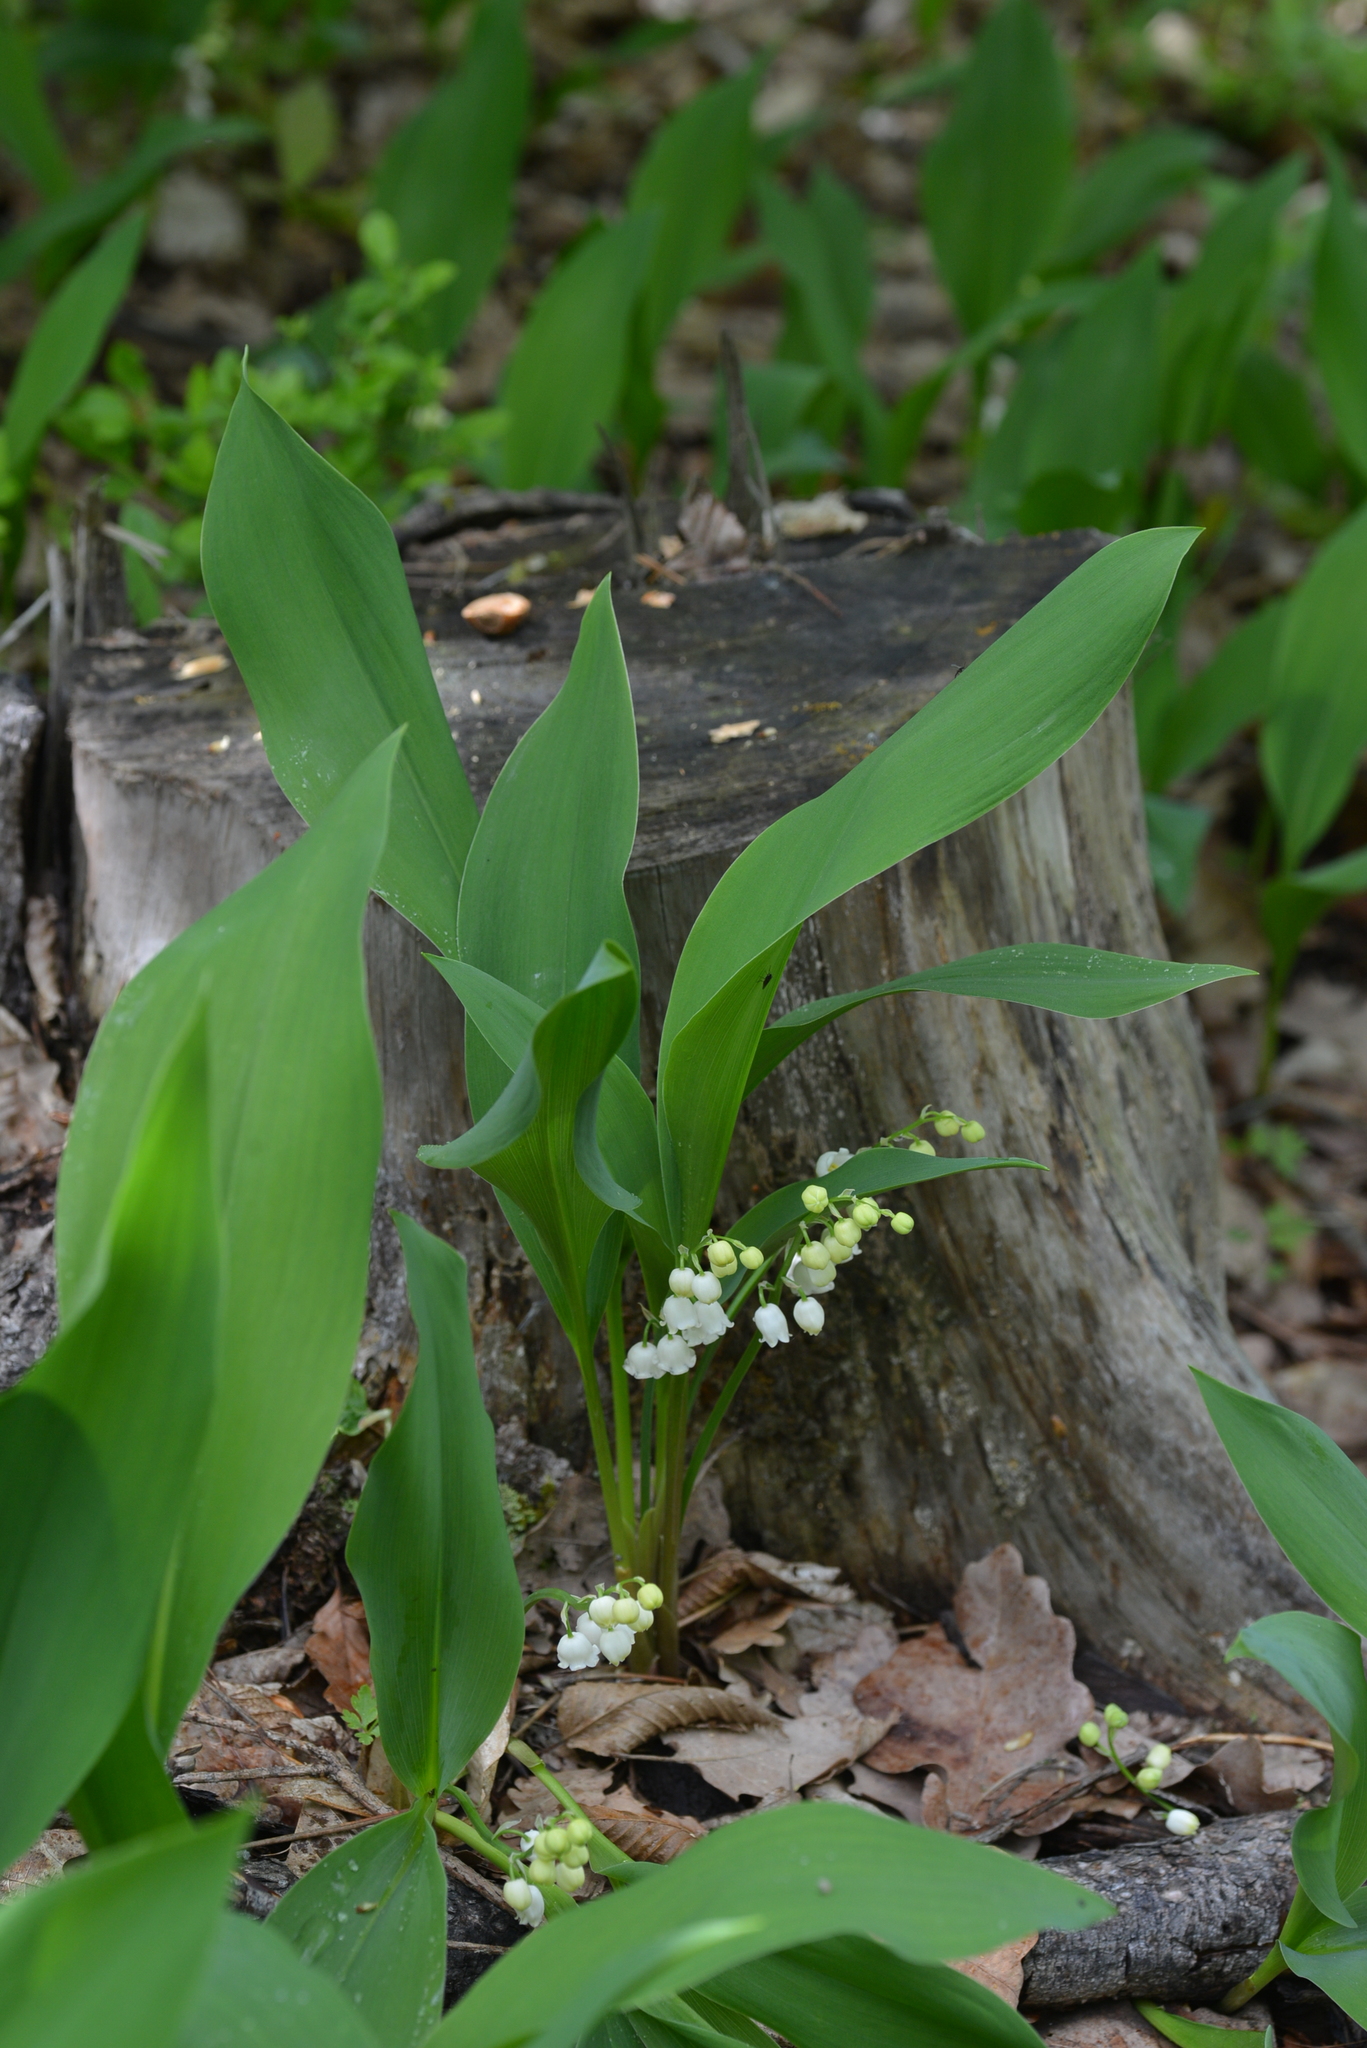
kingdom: Plantae
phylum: Tracheophyta
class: Liliopsida
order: Asparagales
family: Asparagaceae
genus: Convallaria
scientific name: Convallaria majalis
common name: Lily-of-the-valley
